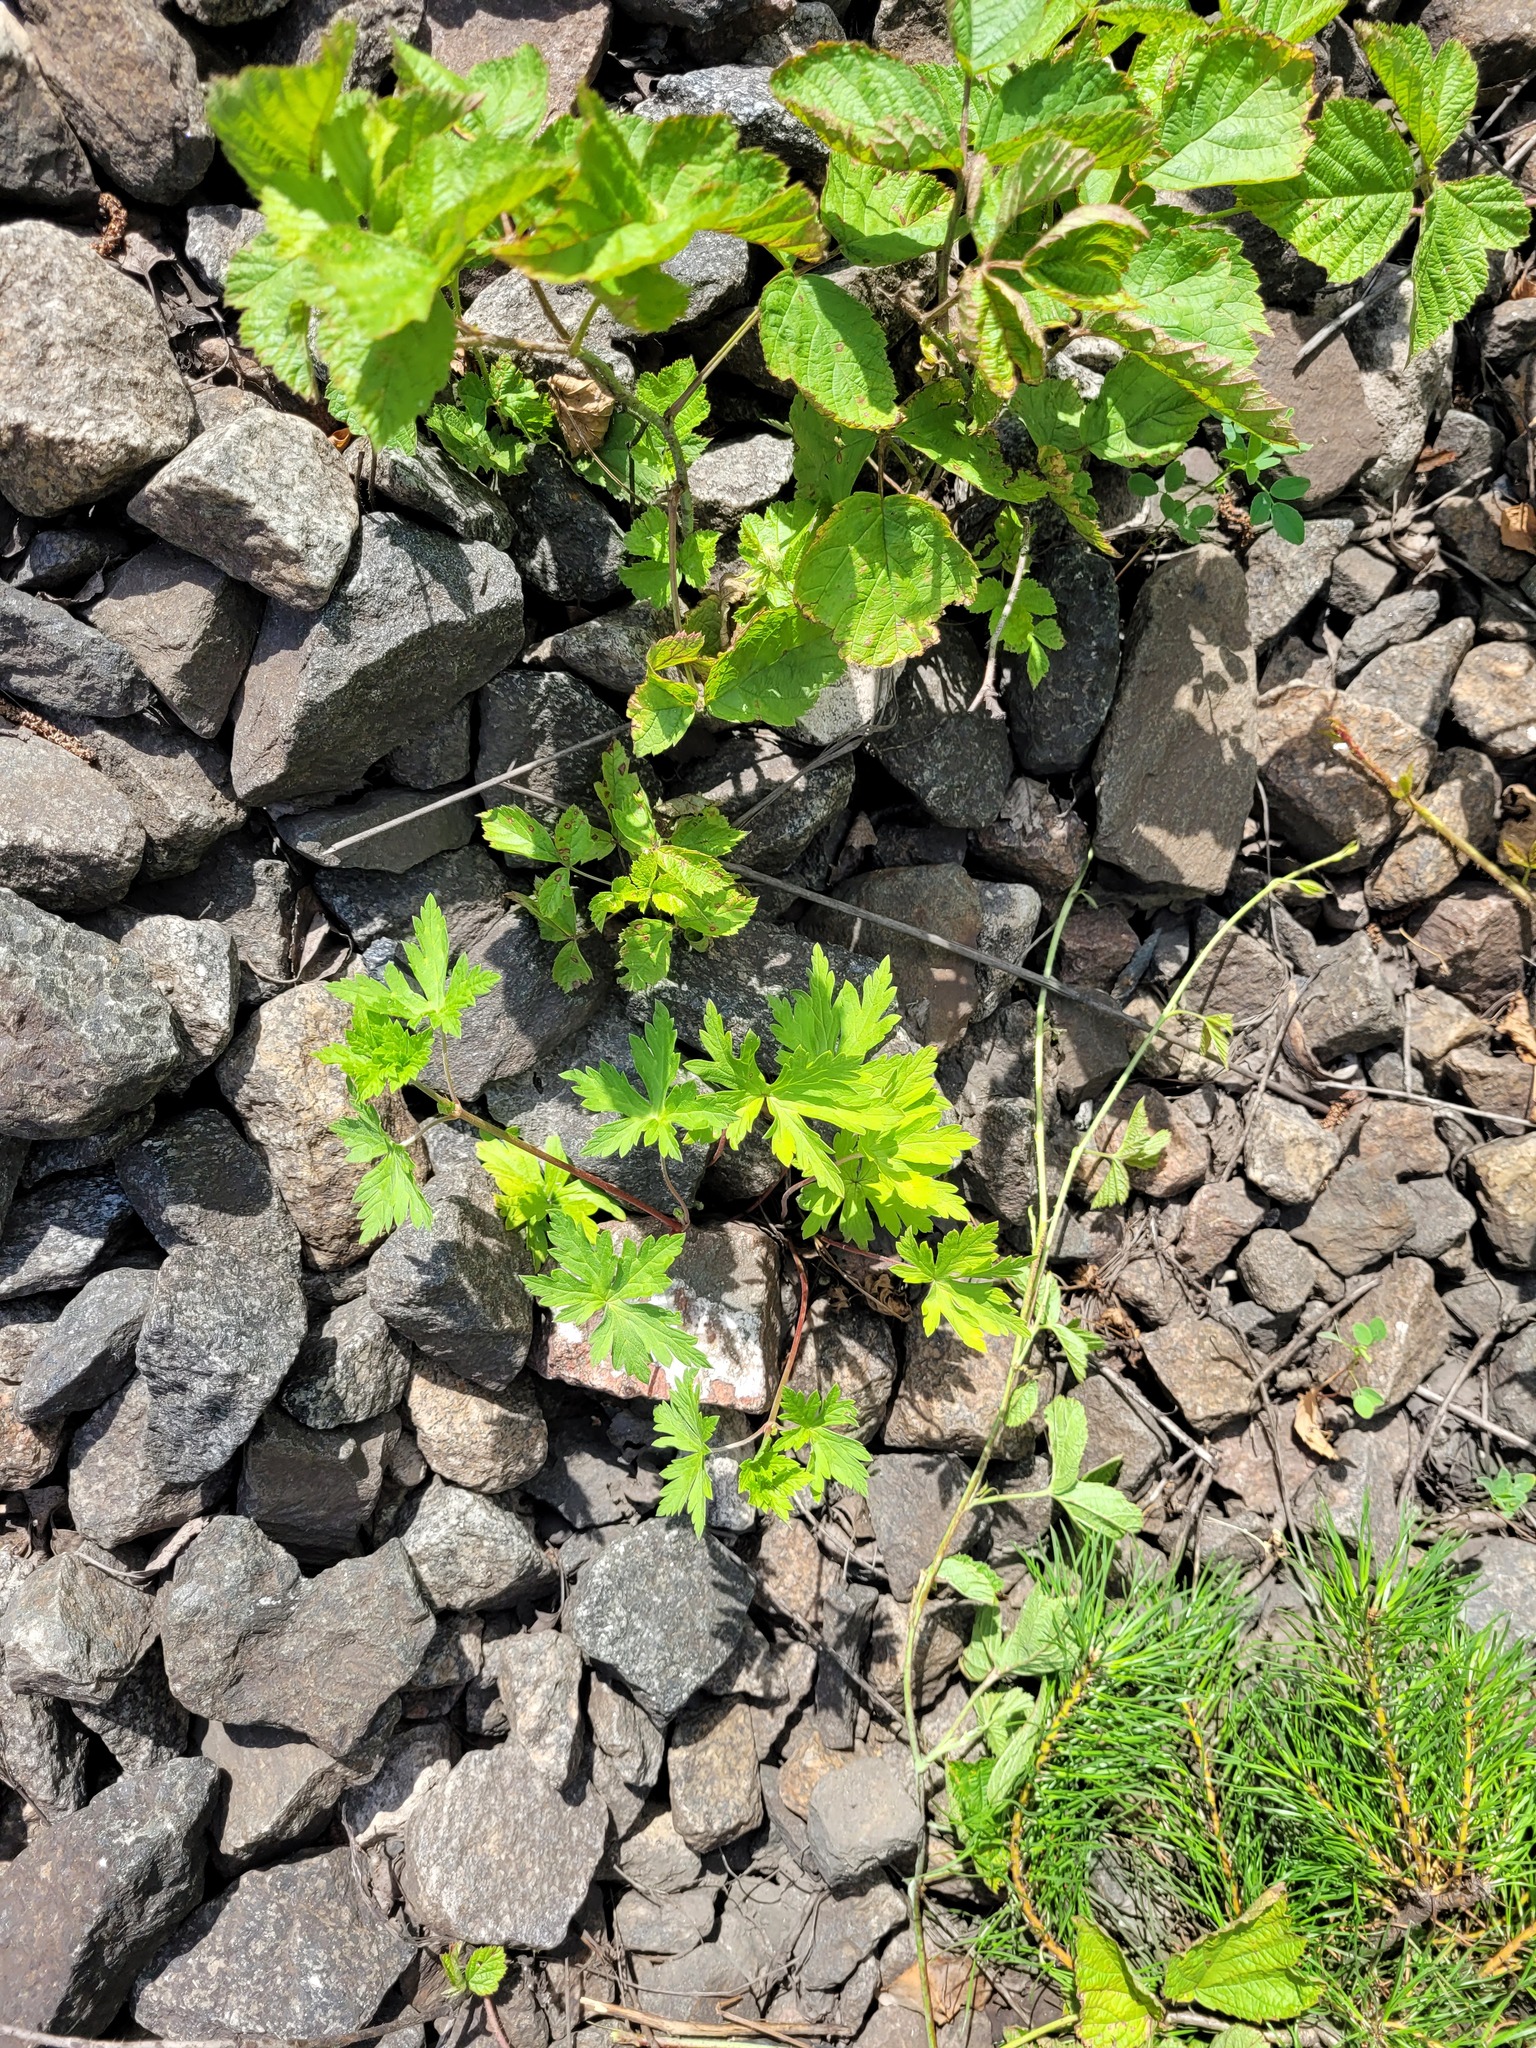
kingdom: Plantae
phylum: Tracheophyta
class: Magnoliopsida
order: Geraniales
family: Geraniaceae
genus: Geranium
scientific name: Geranium sibiricum
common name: Siberian crane's-bill
